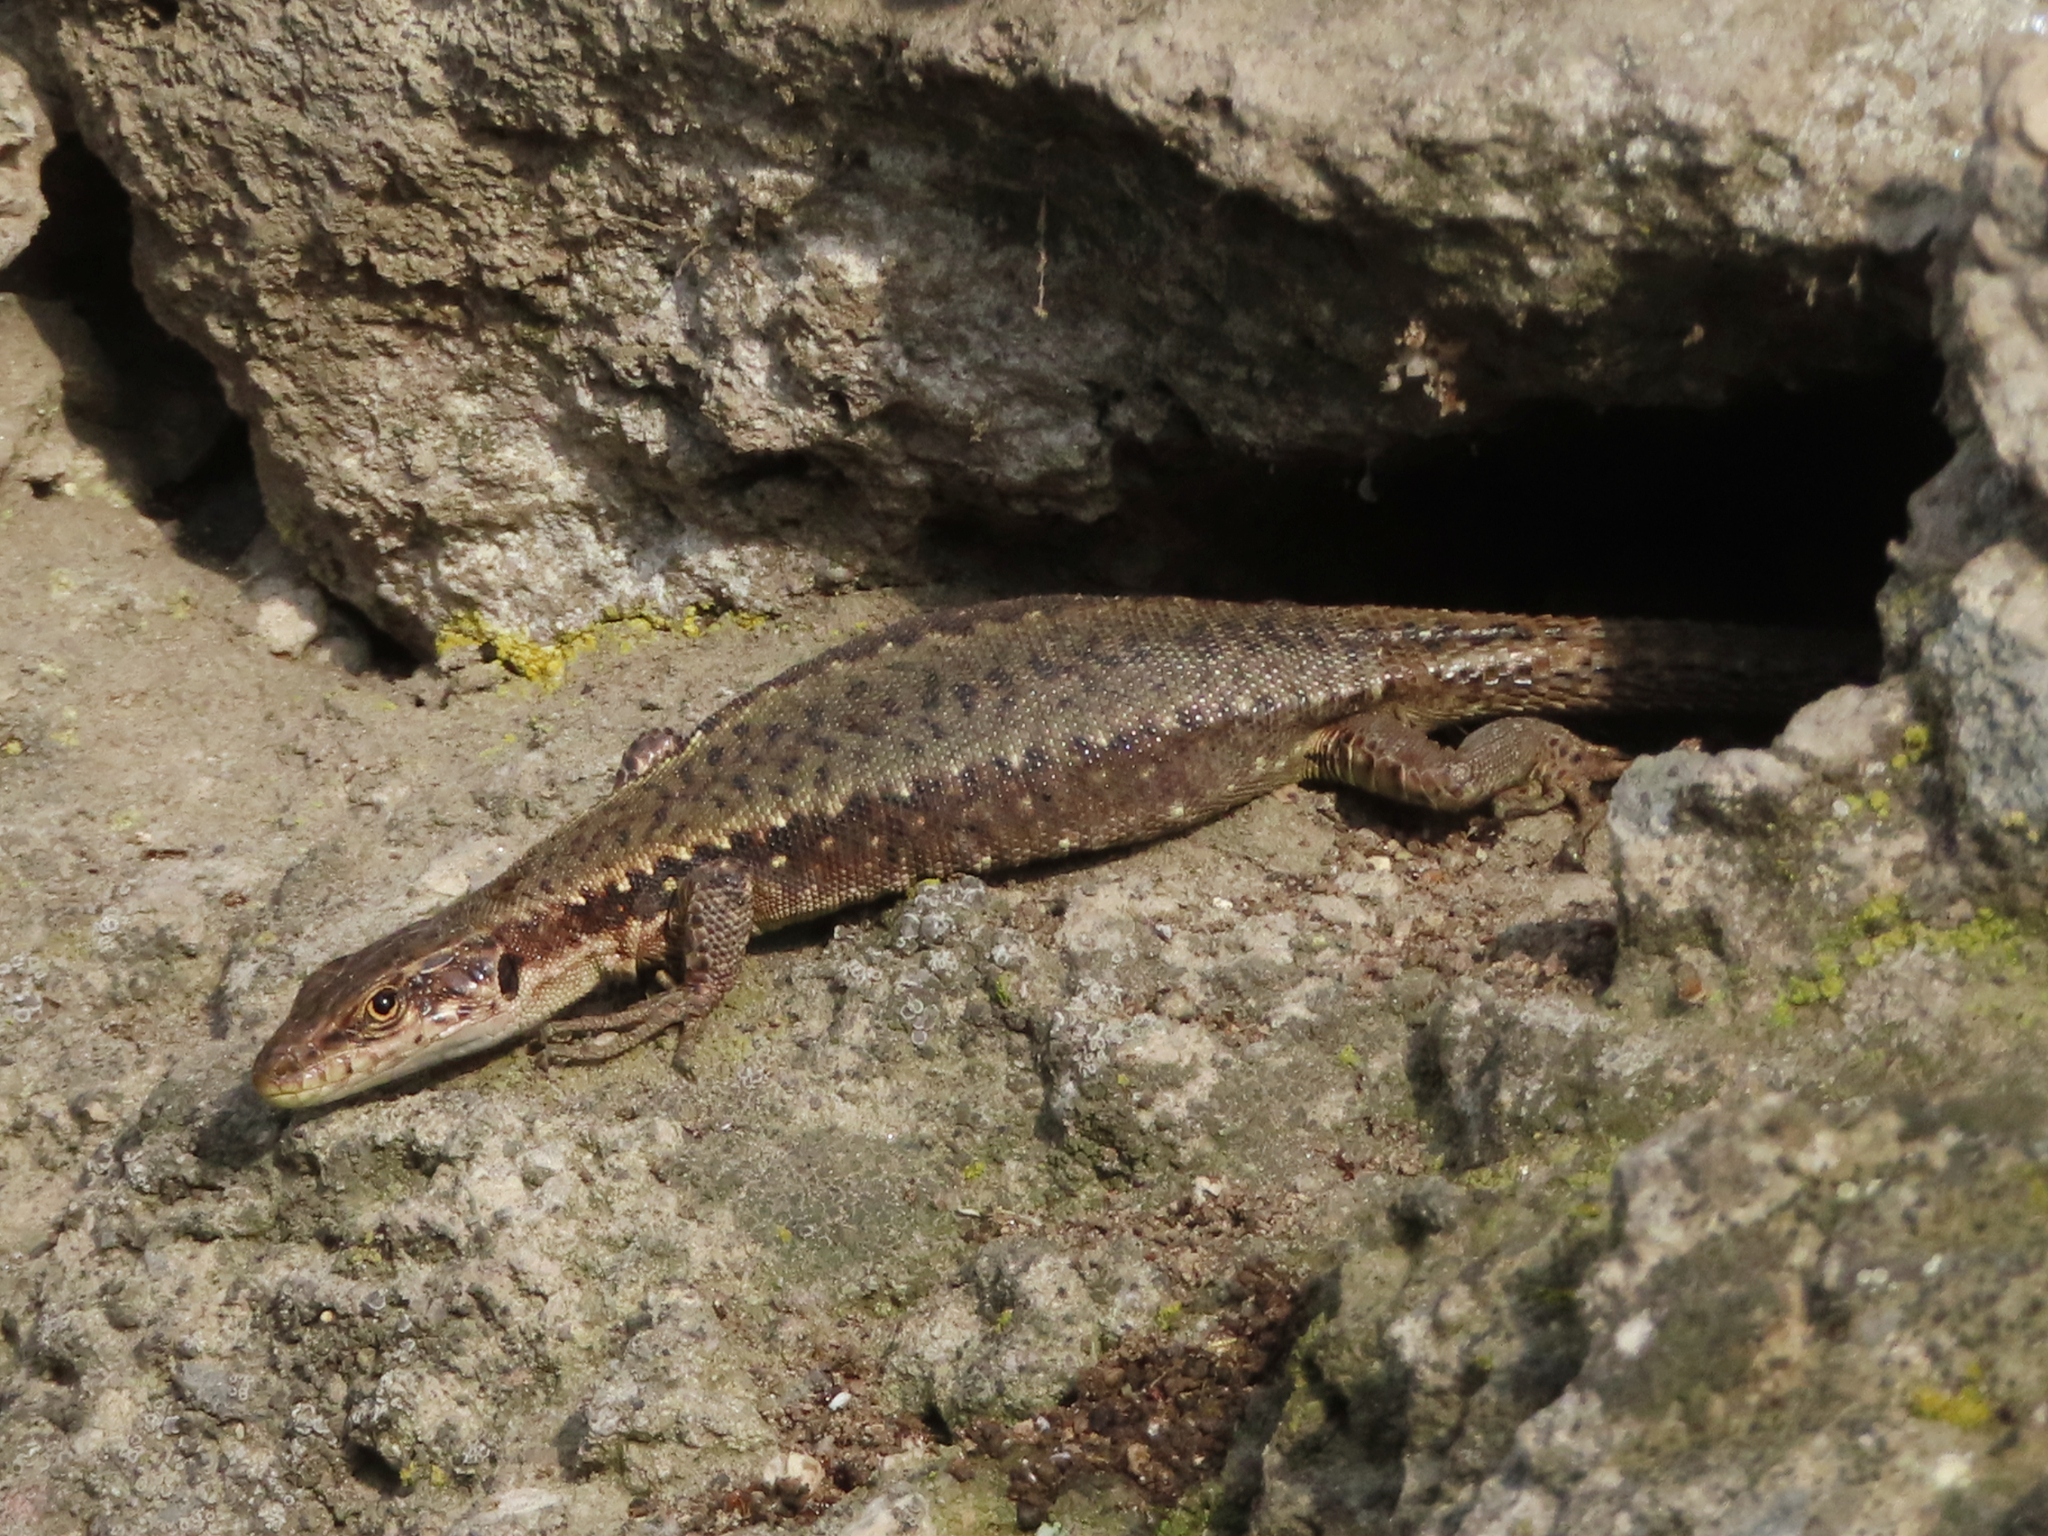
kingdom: Animalia
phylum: Chordata
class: Squamata
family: Lacertidae
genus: Darevskia
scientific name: Darevskia armeniaca
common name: Armenian lizard
